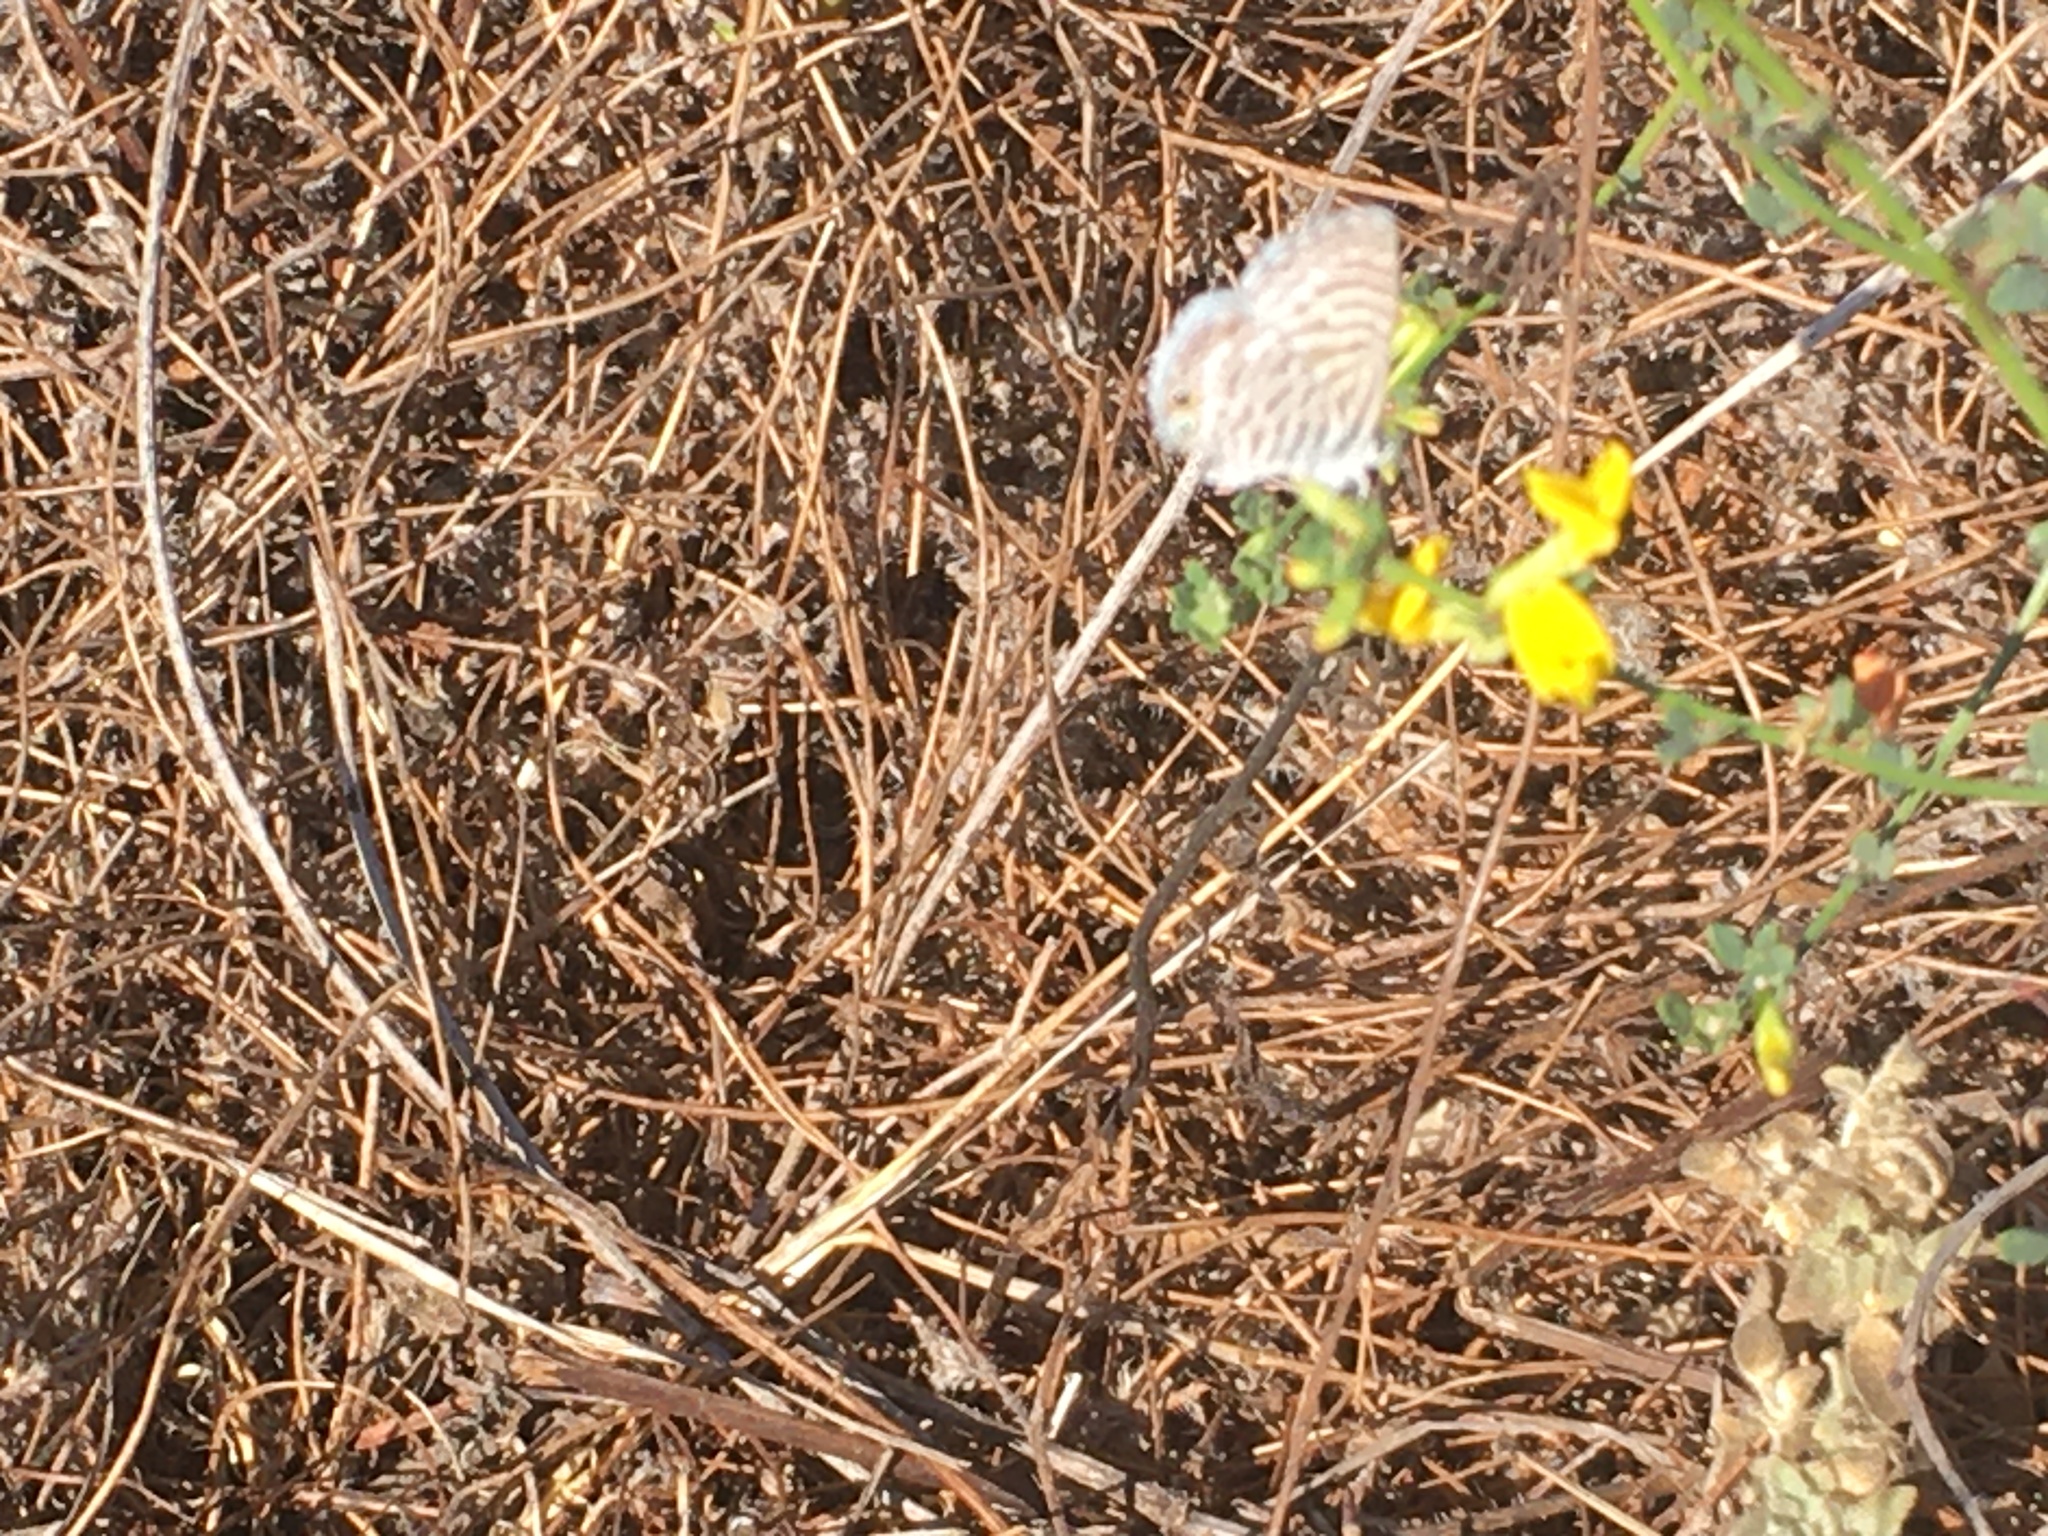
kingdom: Animalia
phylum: Arthropoda
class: Insecta
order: Lepidoptera
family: Lycaenidae
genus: Leptotes
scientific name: Leptotes marina
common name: Marine blue
